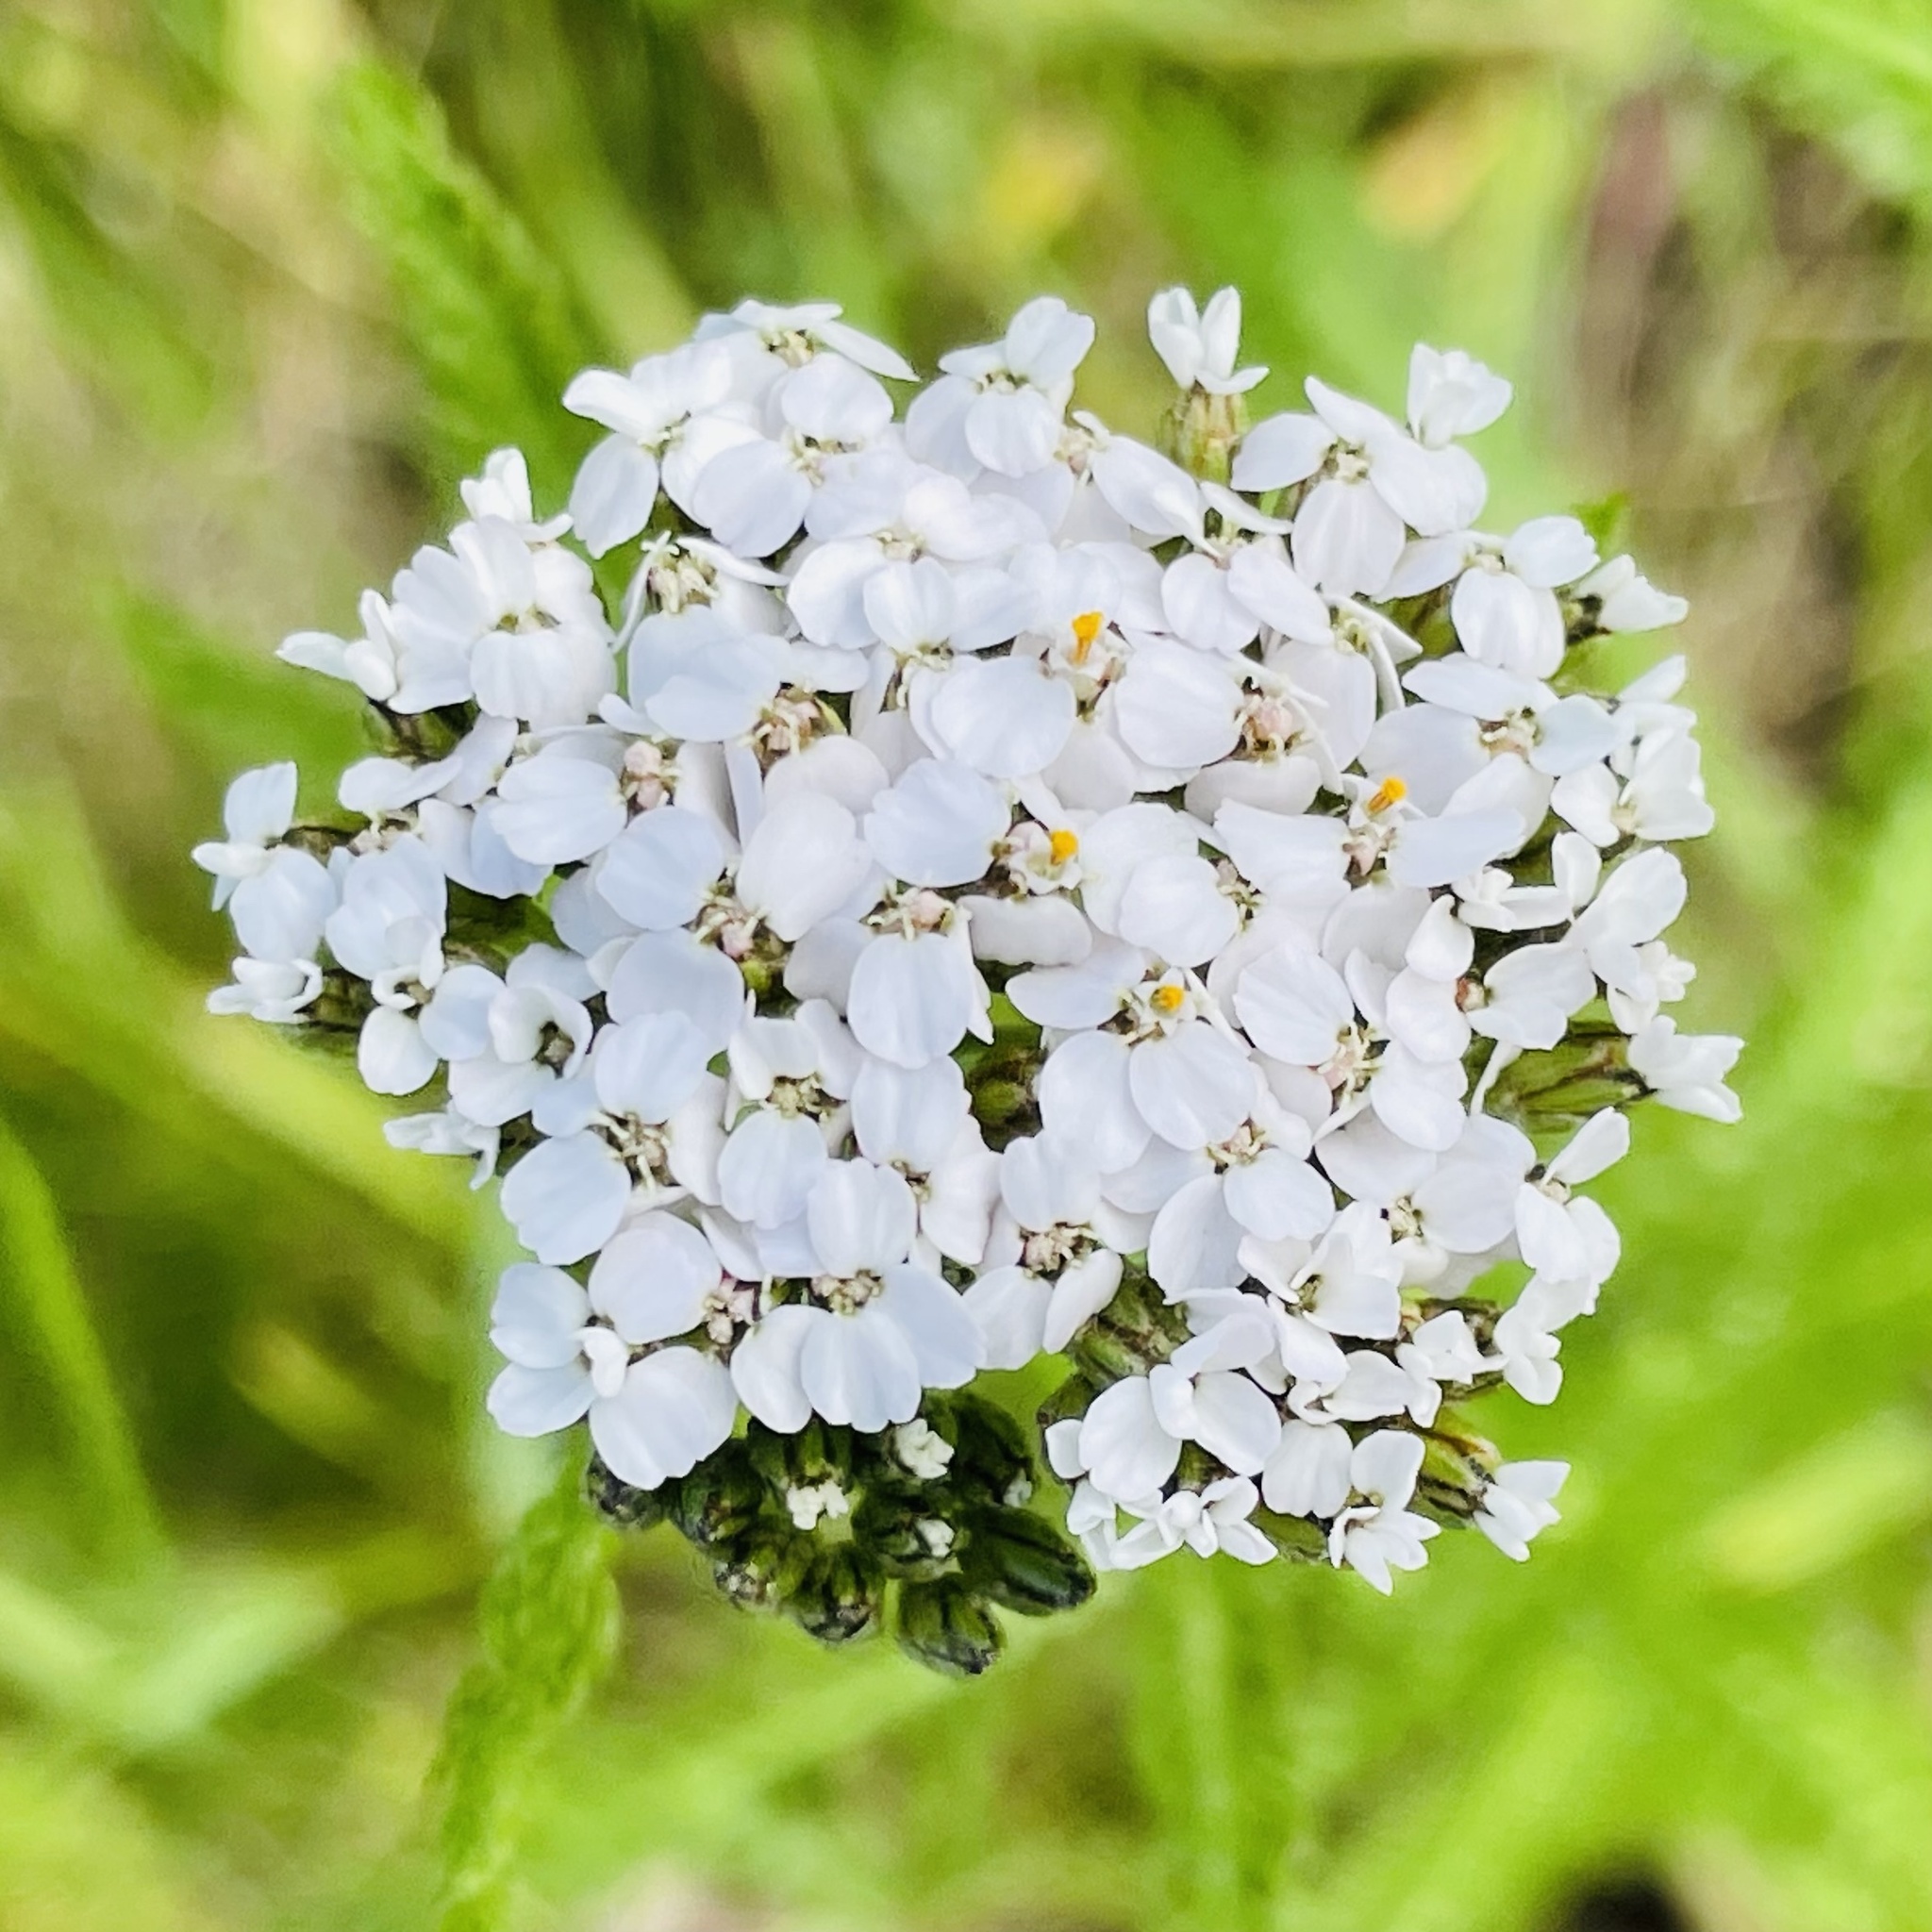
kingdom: Plantae
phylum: Tracheophyta
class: Magnoliopsida
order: Asterales
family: Asteraceae
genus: Achillea
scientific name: Achillea millefolium
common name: Yarrow
